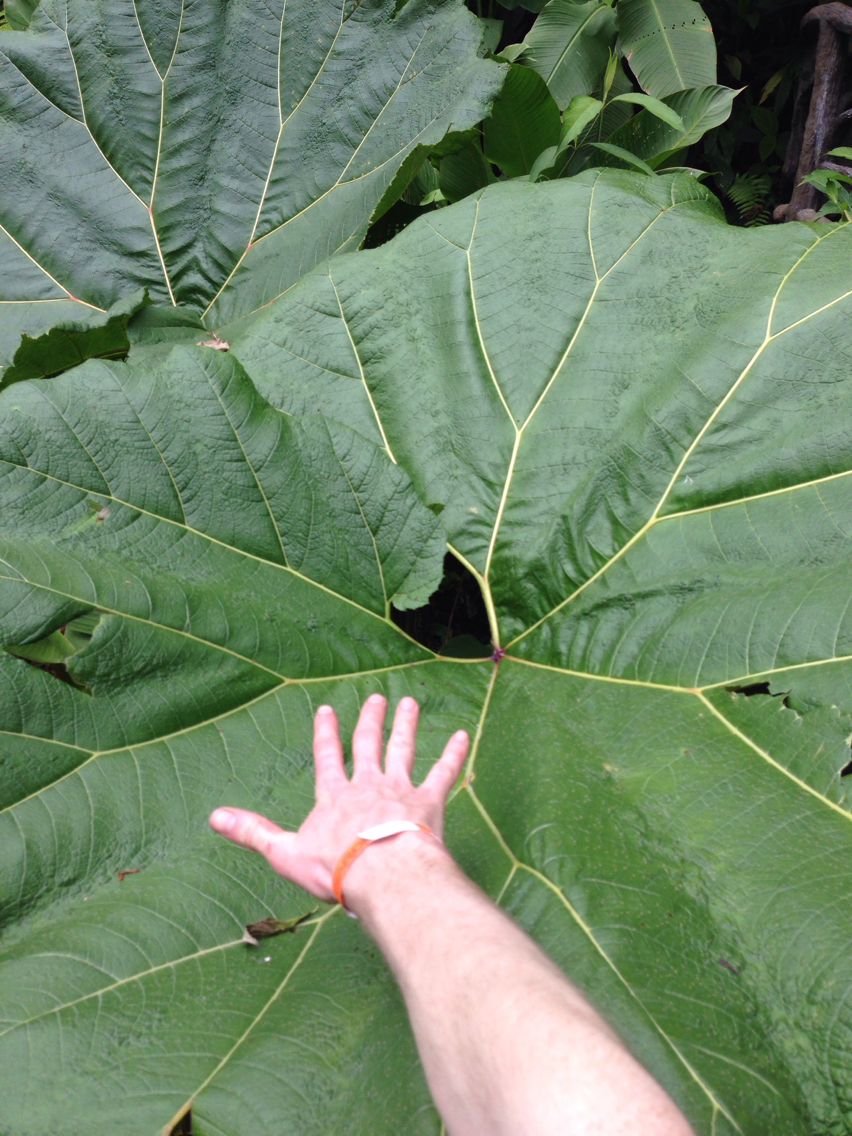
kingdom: Plantae
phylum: Tracheophyta
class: Magnoliopsida
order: Gunnerales
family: Gunneraceae
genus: Gunnera
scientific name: Gunnera insignis
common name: Poorman's umbrella
